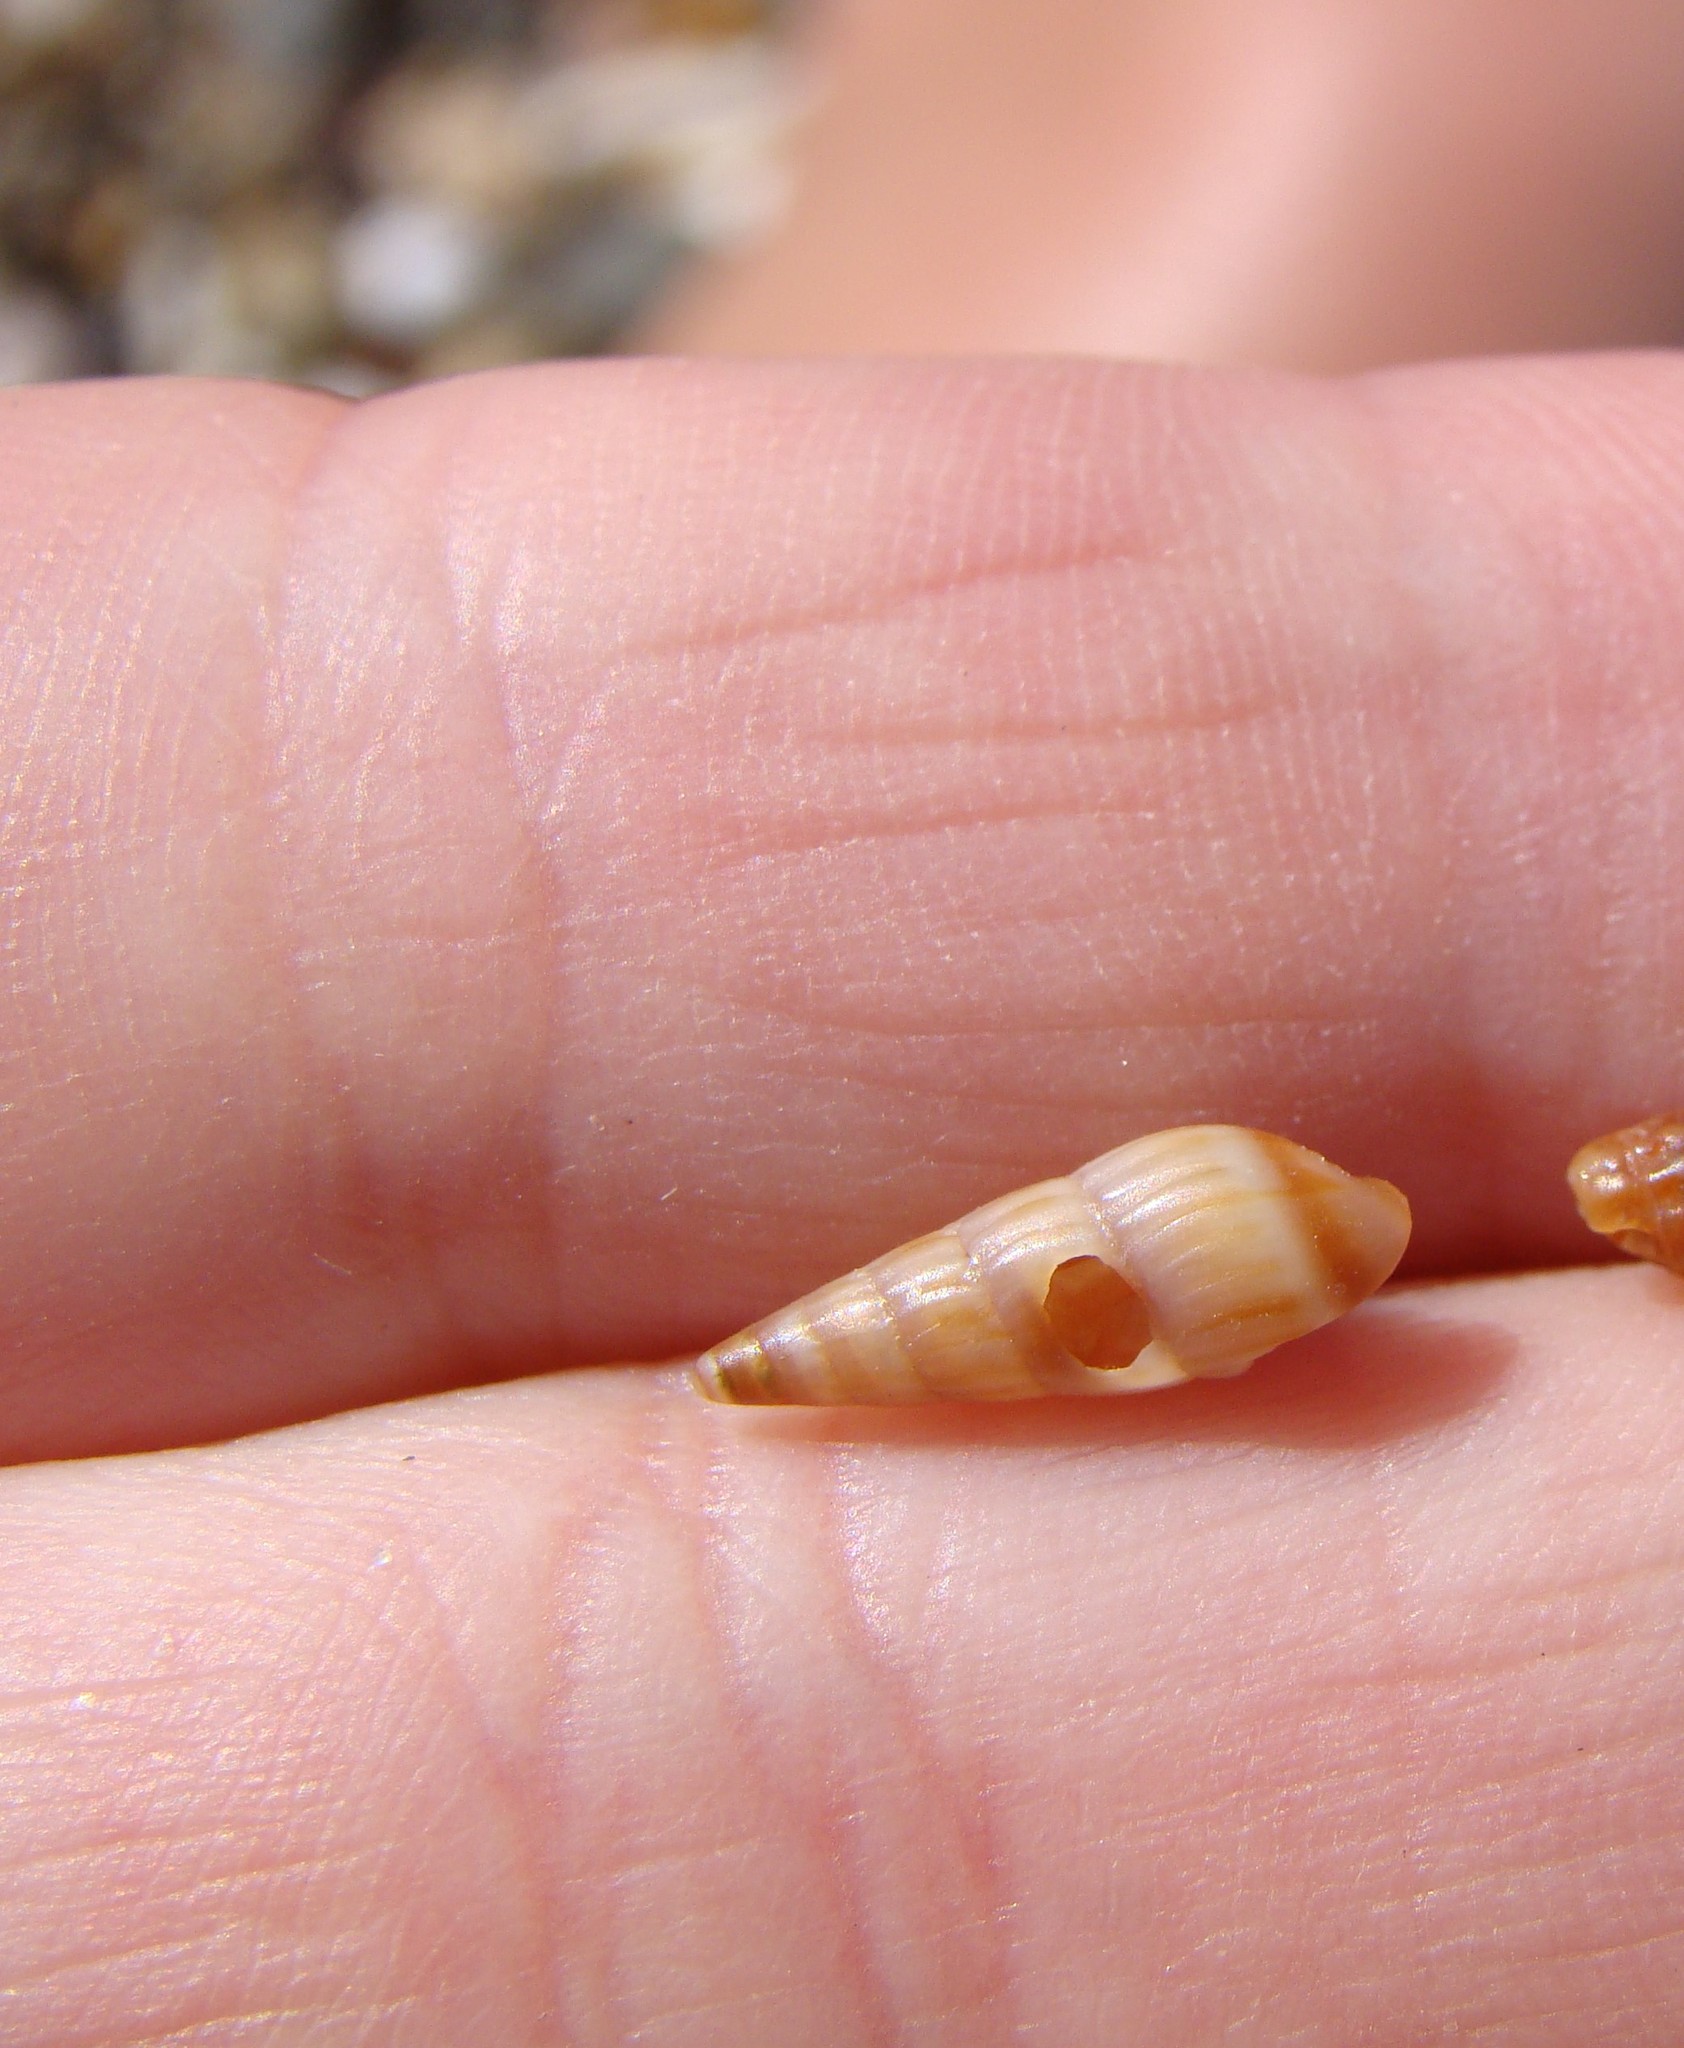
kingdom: Animalia
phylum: Mollusca
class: Gastropoda
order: Neogastropoda
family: Terebridae
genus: Duplicaria
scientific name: Duplicaria tristis
